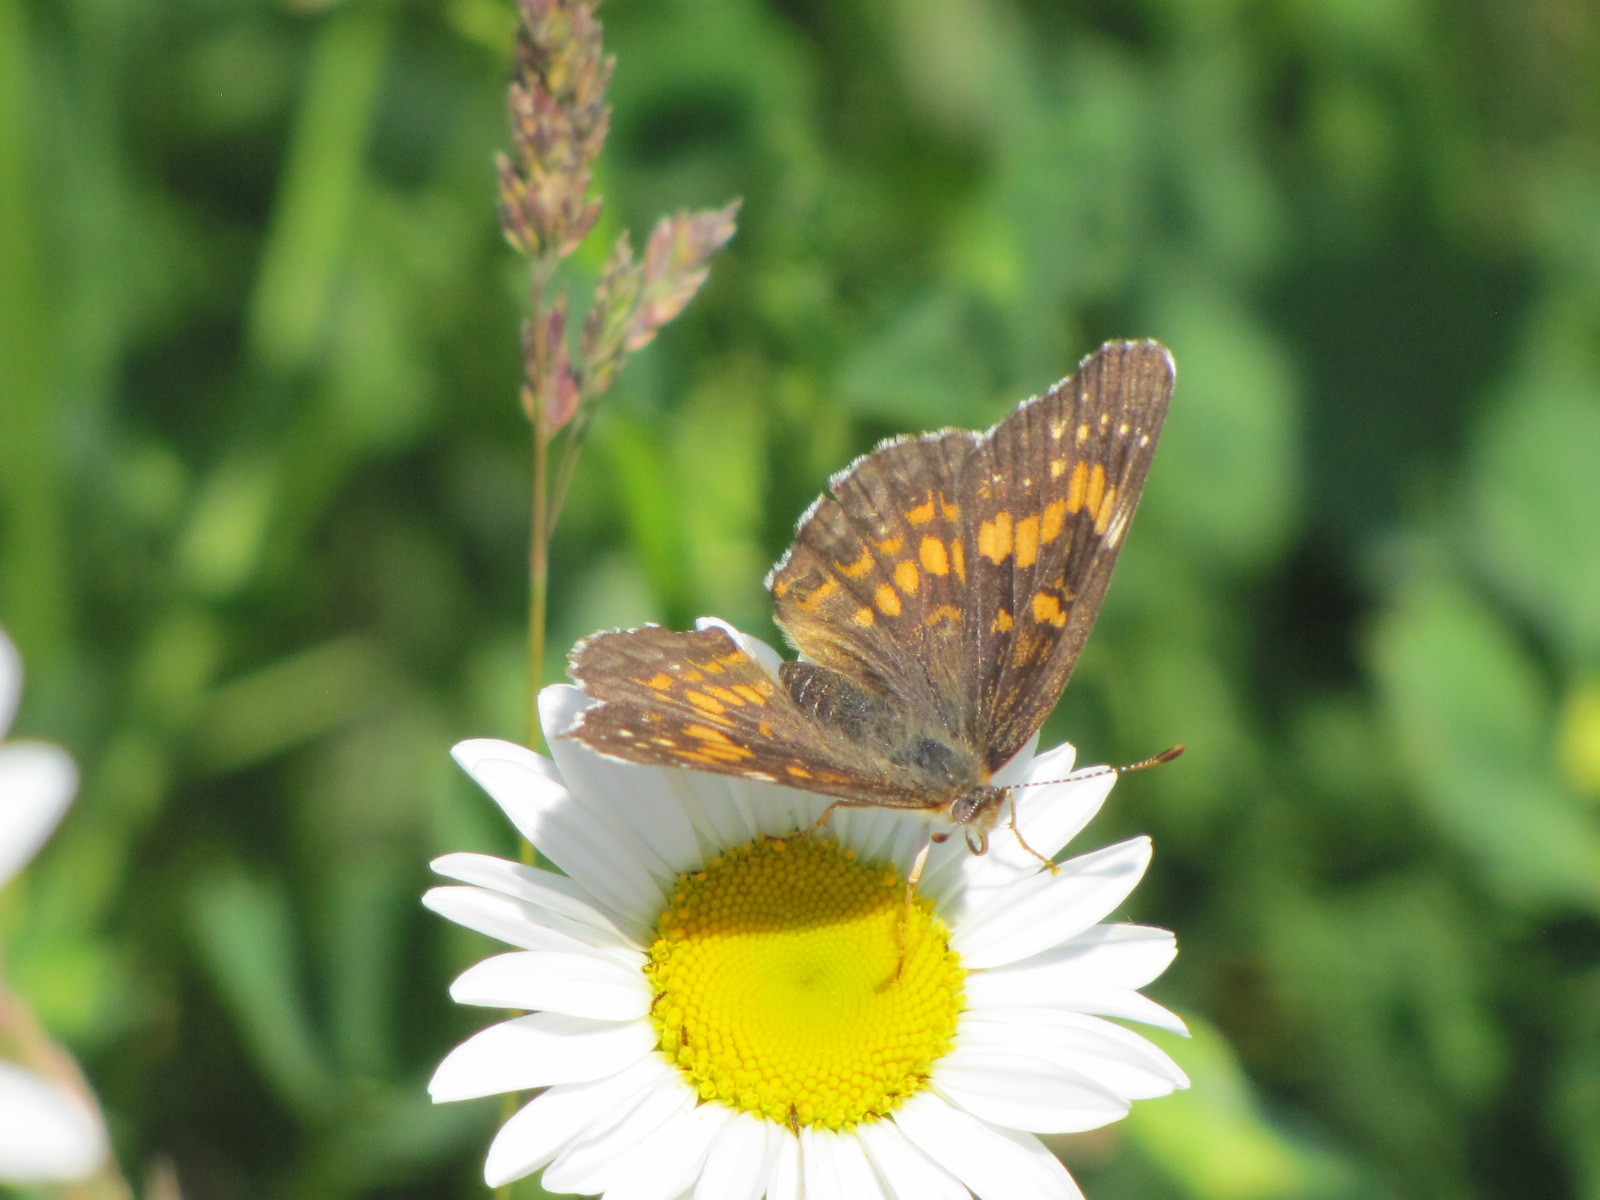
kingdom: Animalia
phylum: Arthropoda
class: Insecta
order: Lepidoptera
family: Nymphalidae
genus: Chlosyne
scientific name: Chlosyne harrisii
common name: Harris's checkerspot
